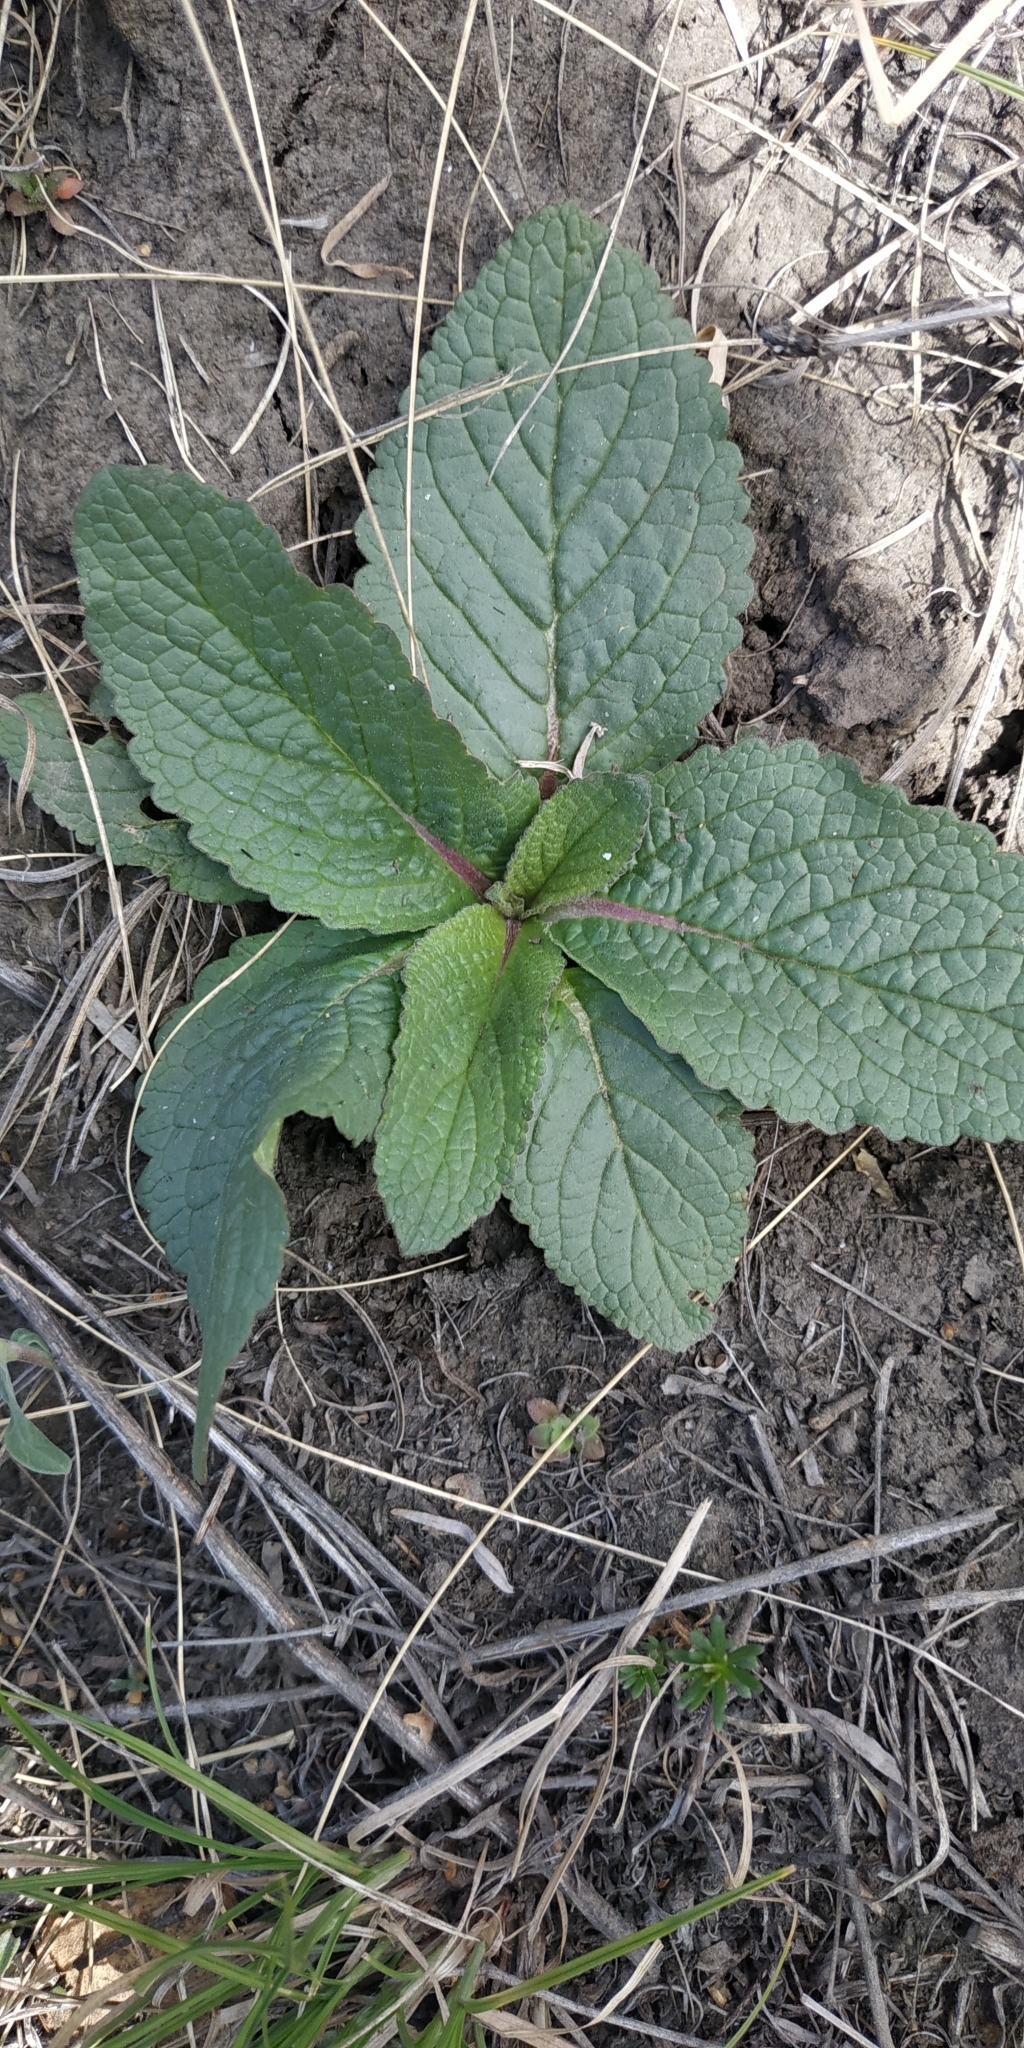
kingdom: Plantae
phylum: Tracheophyta
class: Magnoliopsida
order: Lamiales
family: Scrophulariaceae
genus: Verbascum
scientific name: Verbascum phoeniceum
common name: Purple mullein
